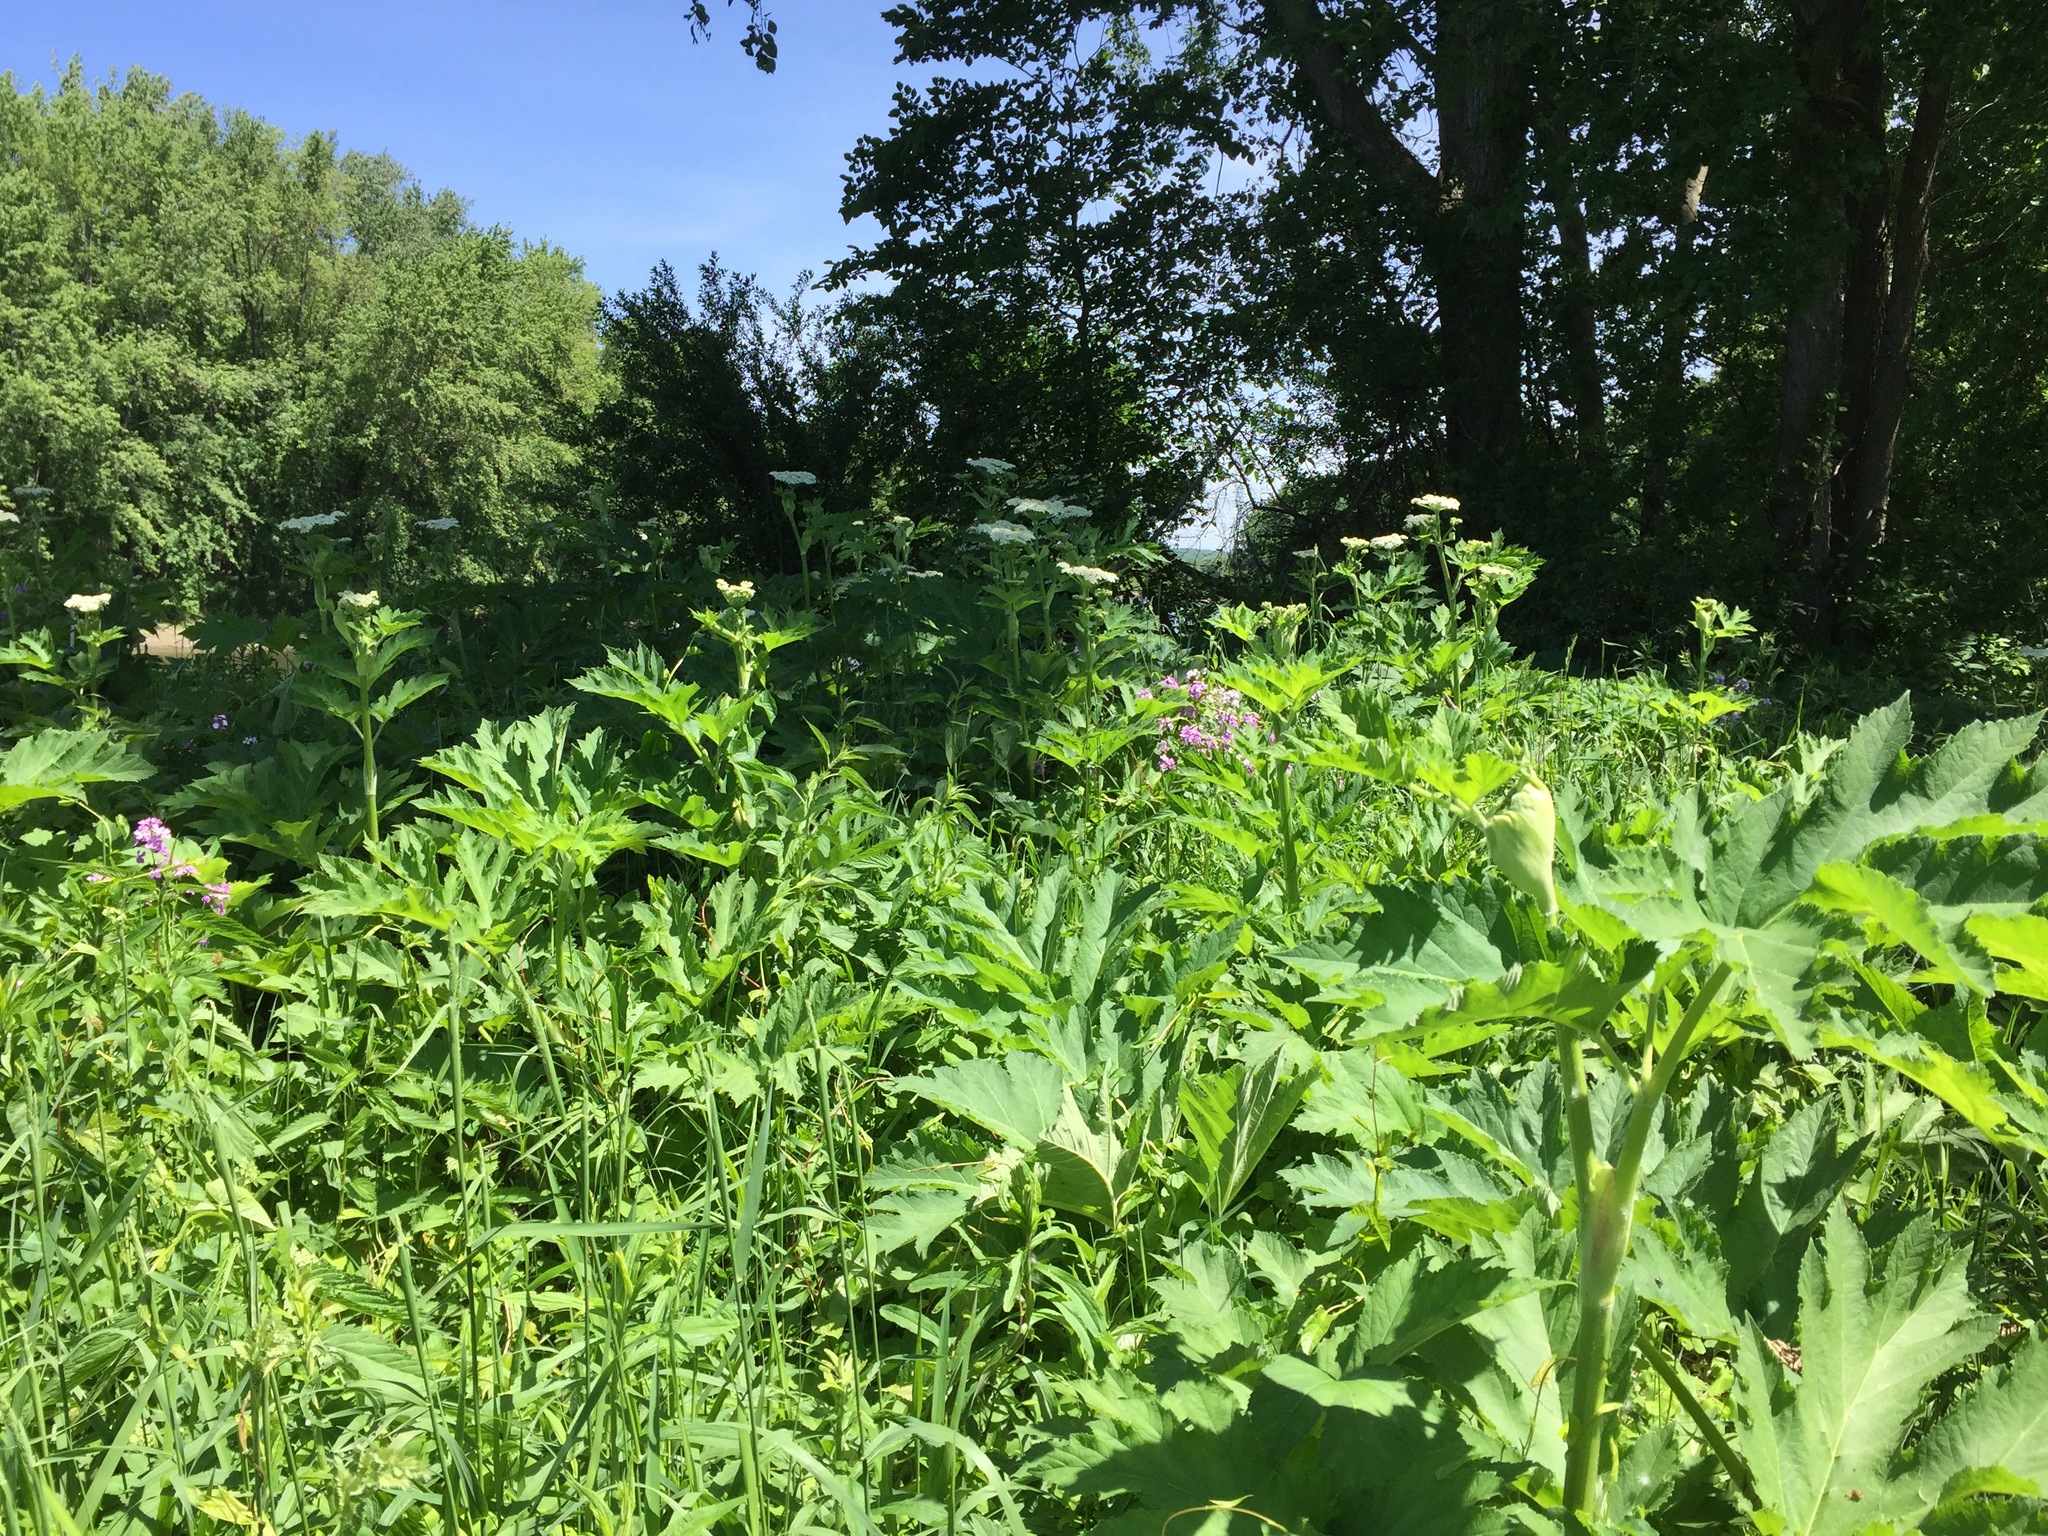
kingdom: Plantae
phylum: Tracheophyta
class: Magnoliopsida
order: Apiales
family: Apiaceae
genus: Heracleum
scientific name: Heracleum maximum
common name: American cow parsnip
